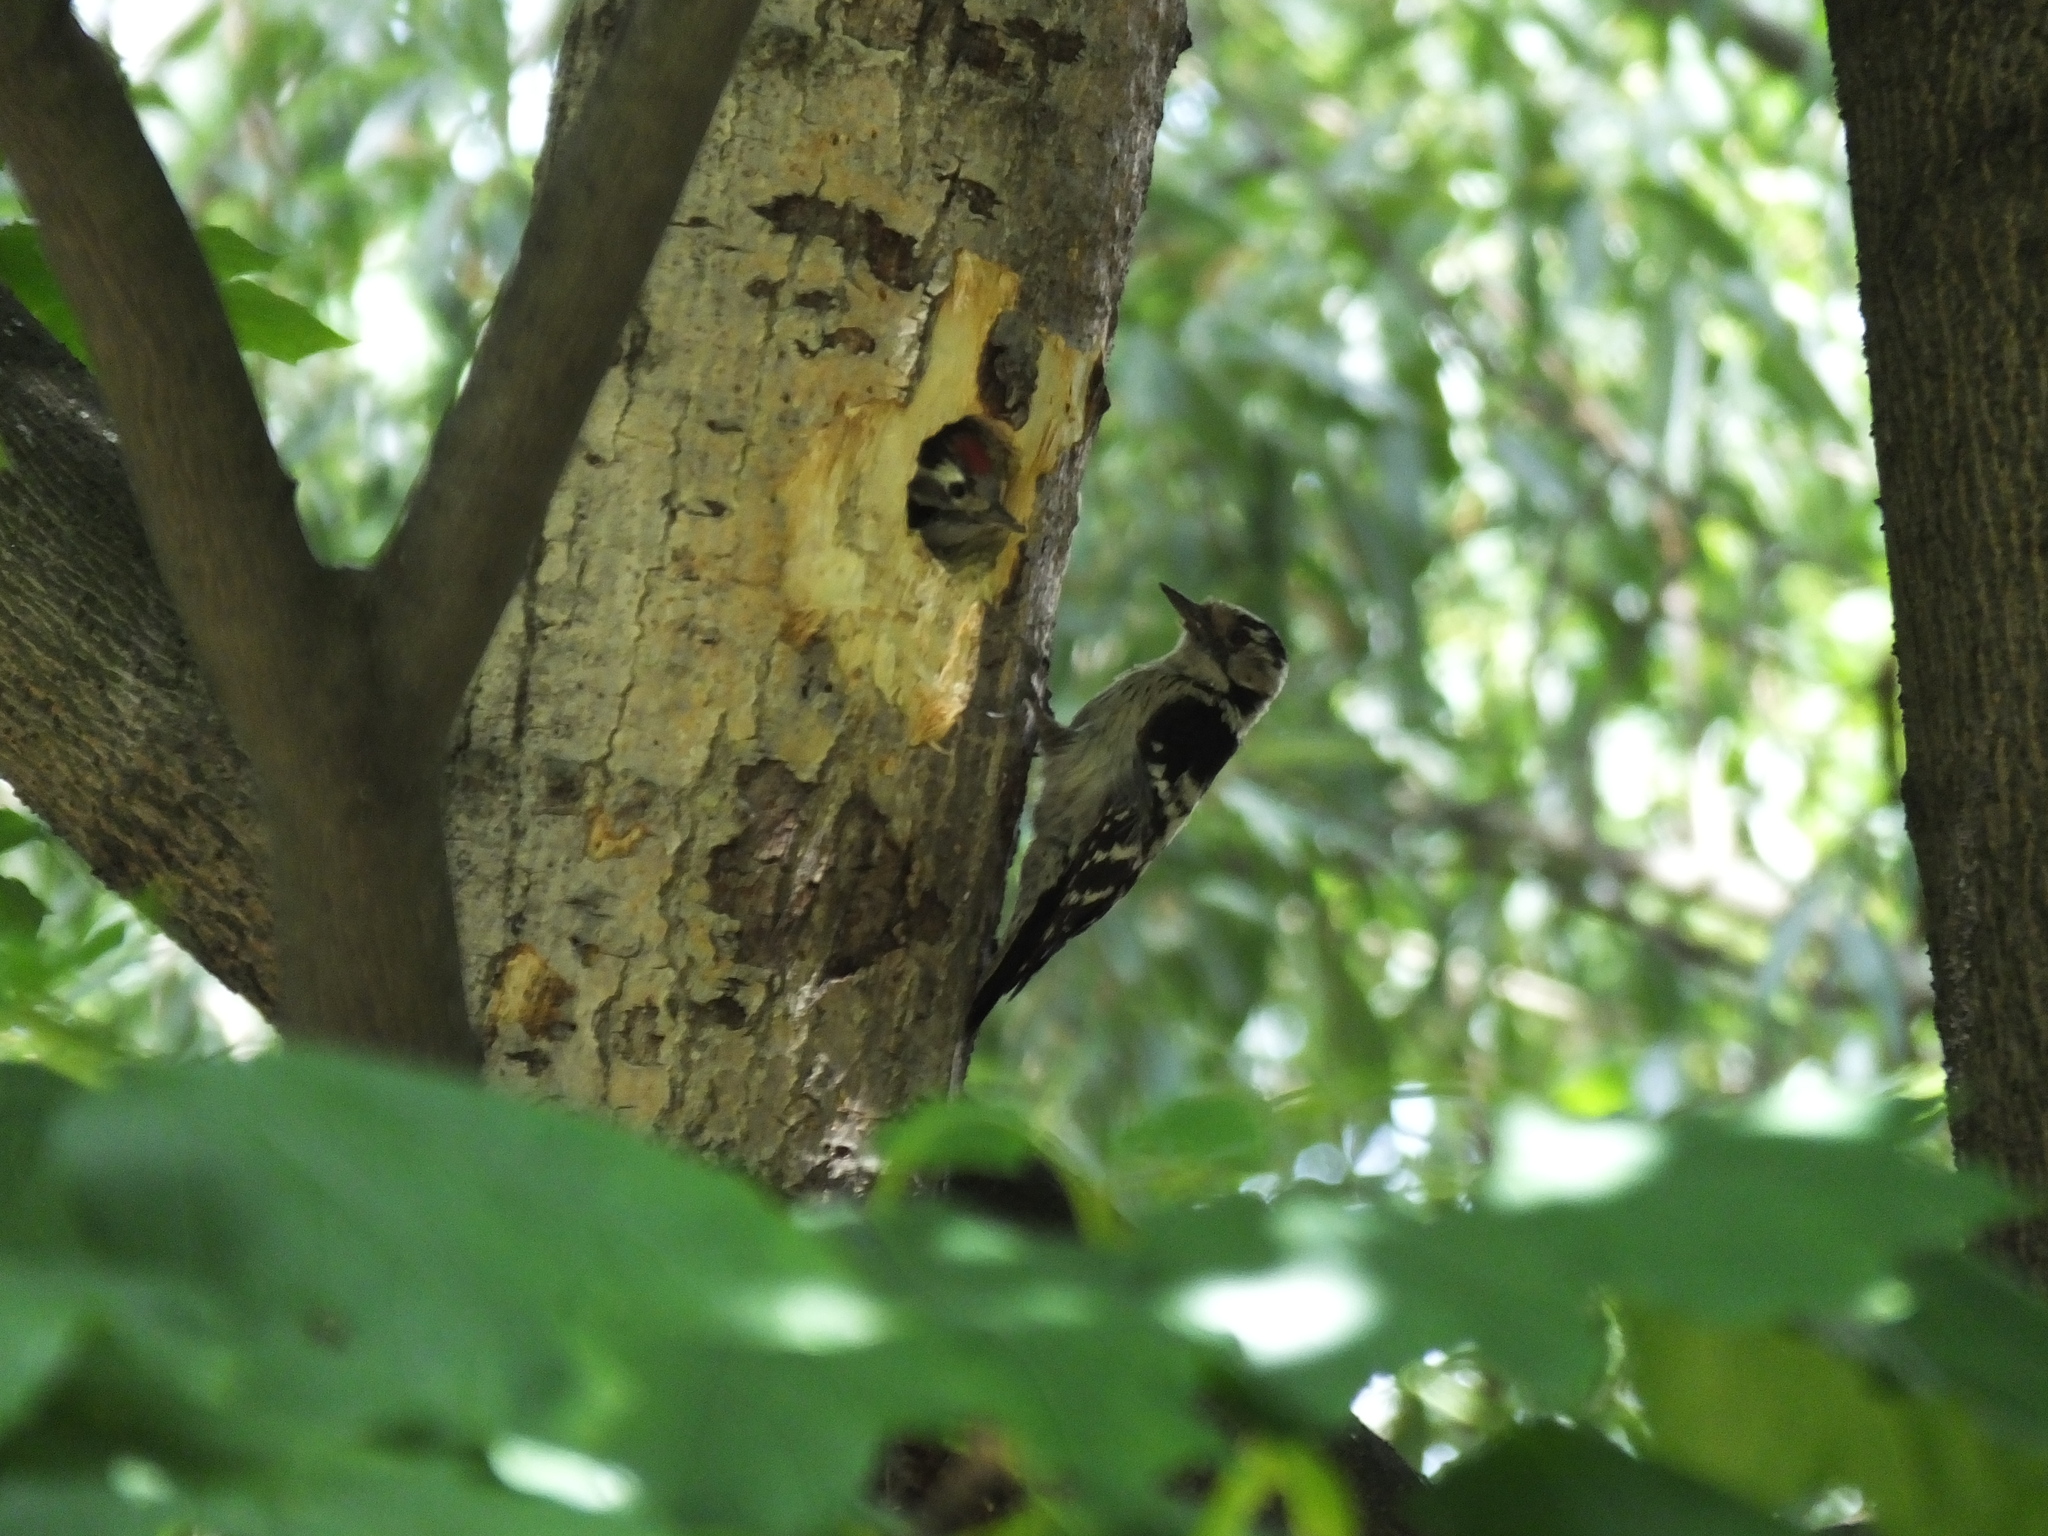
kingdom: Animalia
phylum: Chordata
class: Aves
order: Piciformes
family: Picidae
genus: Dryobates
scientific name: Dryobates minor
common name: Lesser spotted woodpecker
